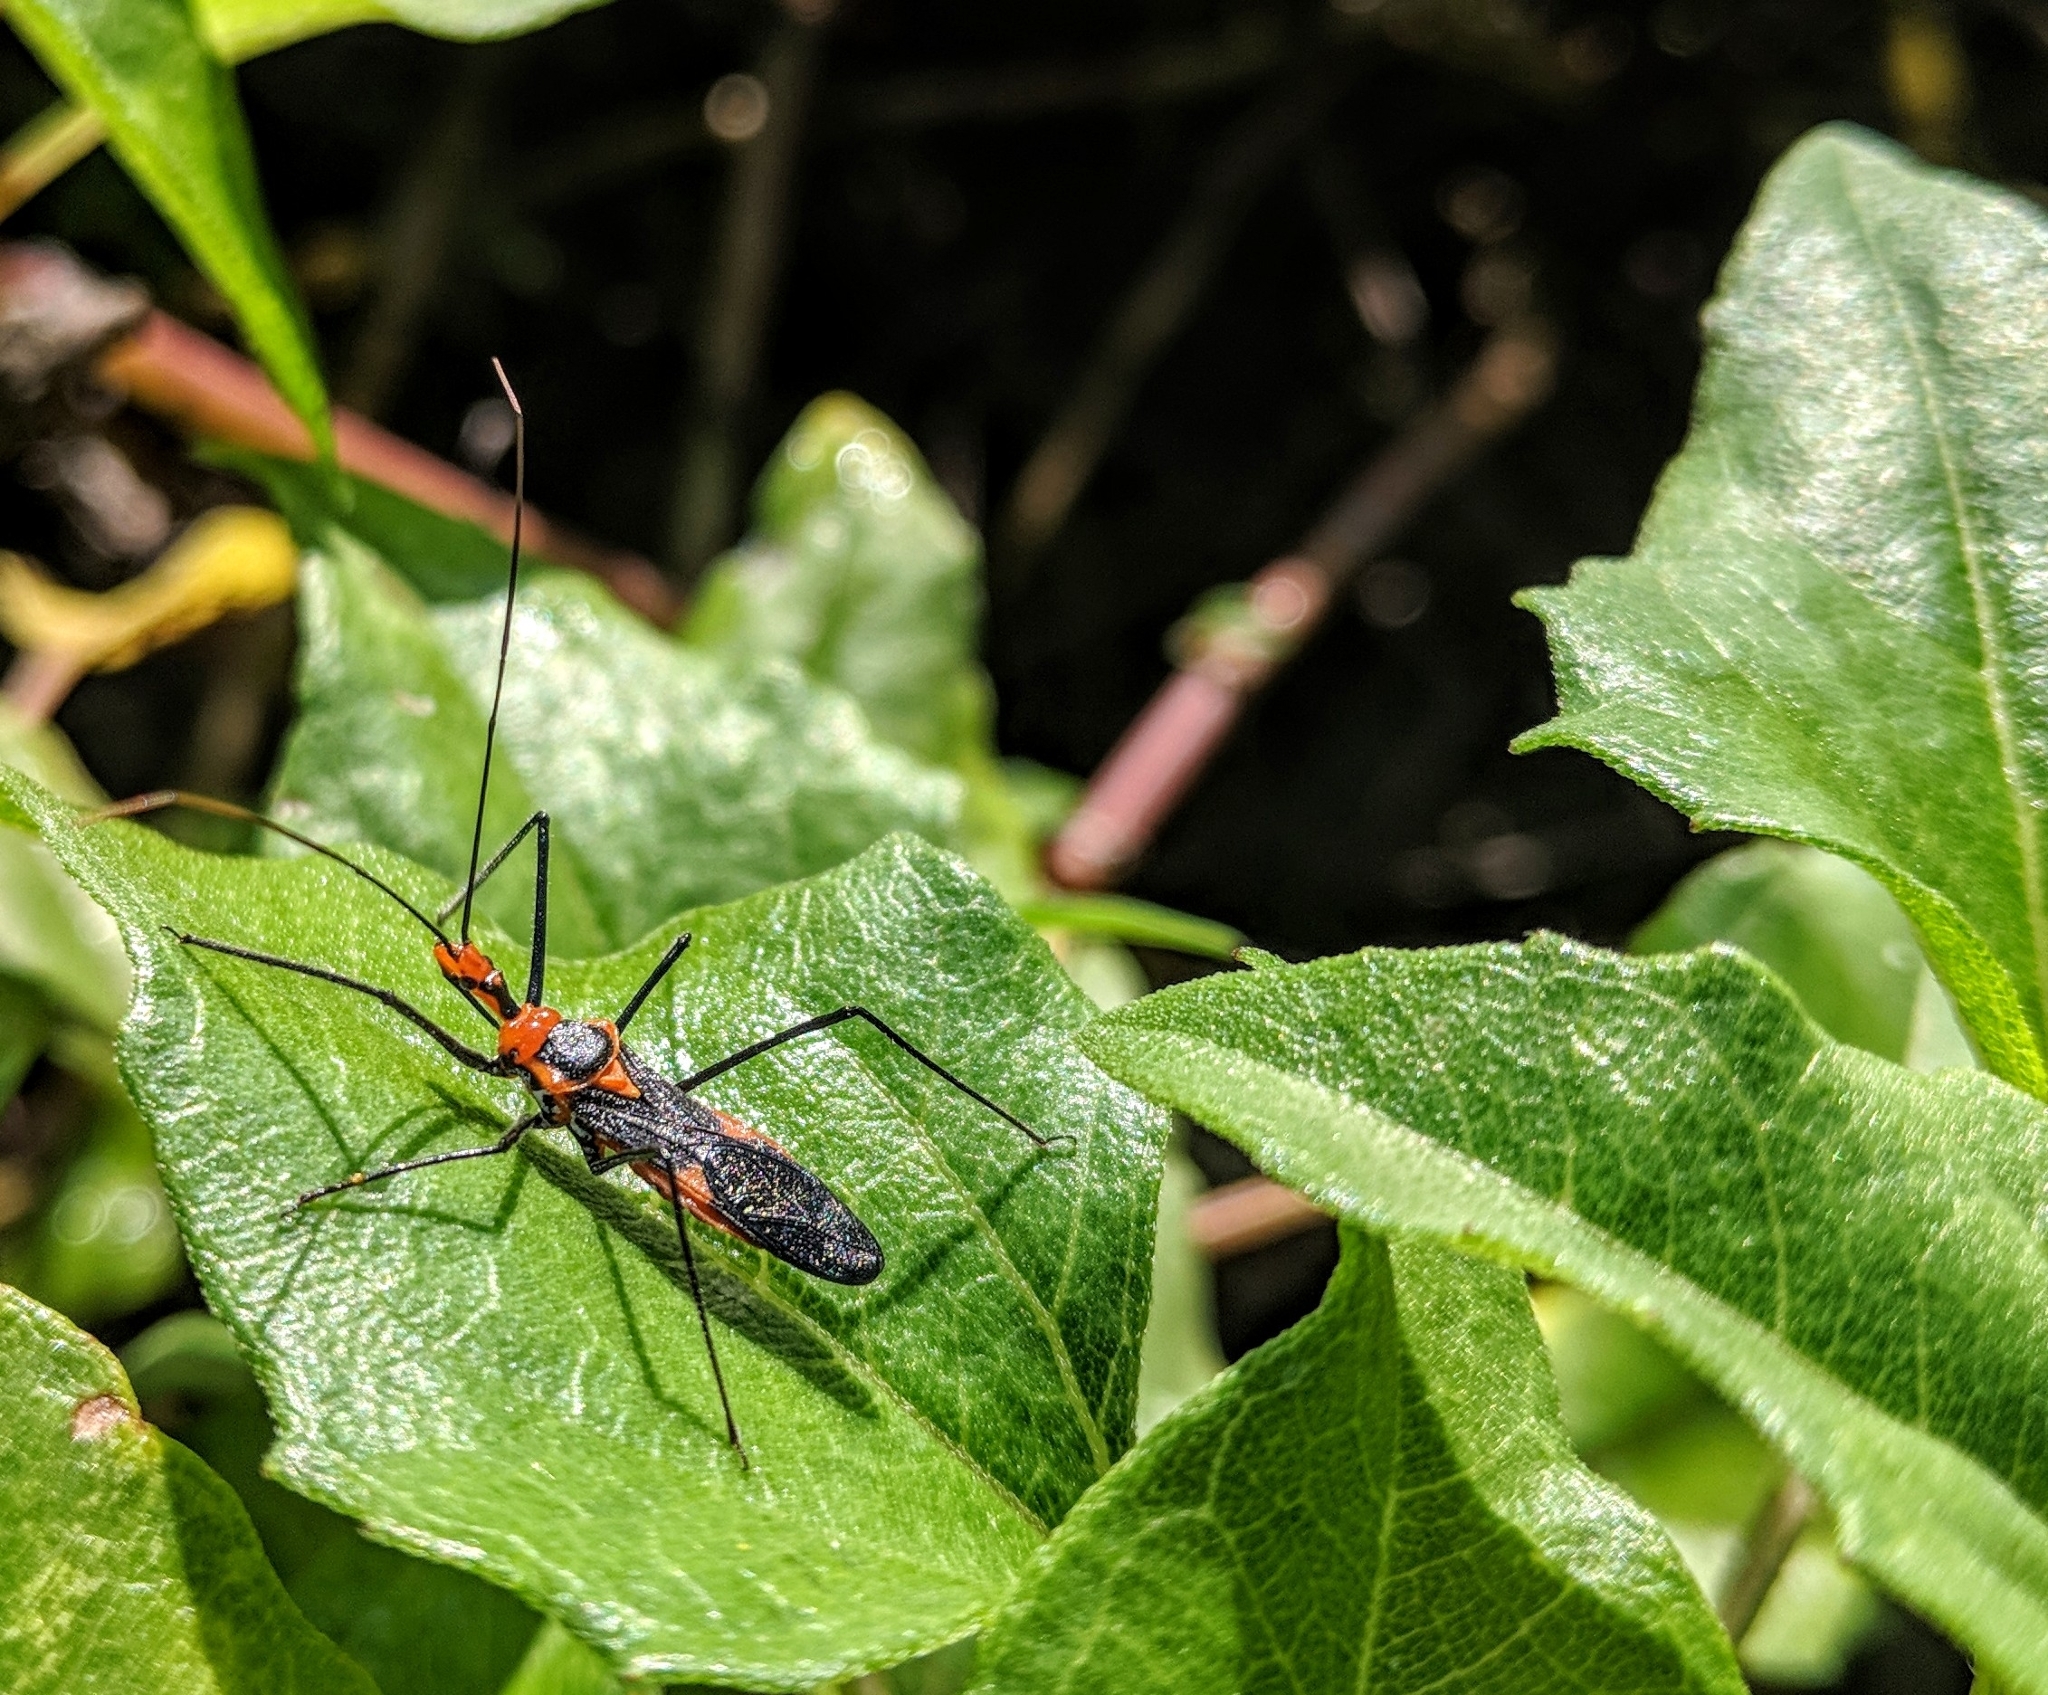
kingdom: Animalia
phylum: Arthropoda
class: Insecta
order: Hemiptera
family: Reduviidae
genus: Zelus
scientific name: Zelus longipes
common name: Milkweed assassin bug
